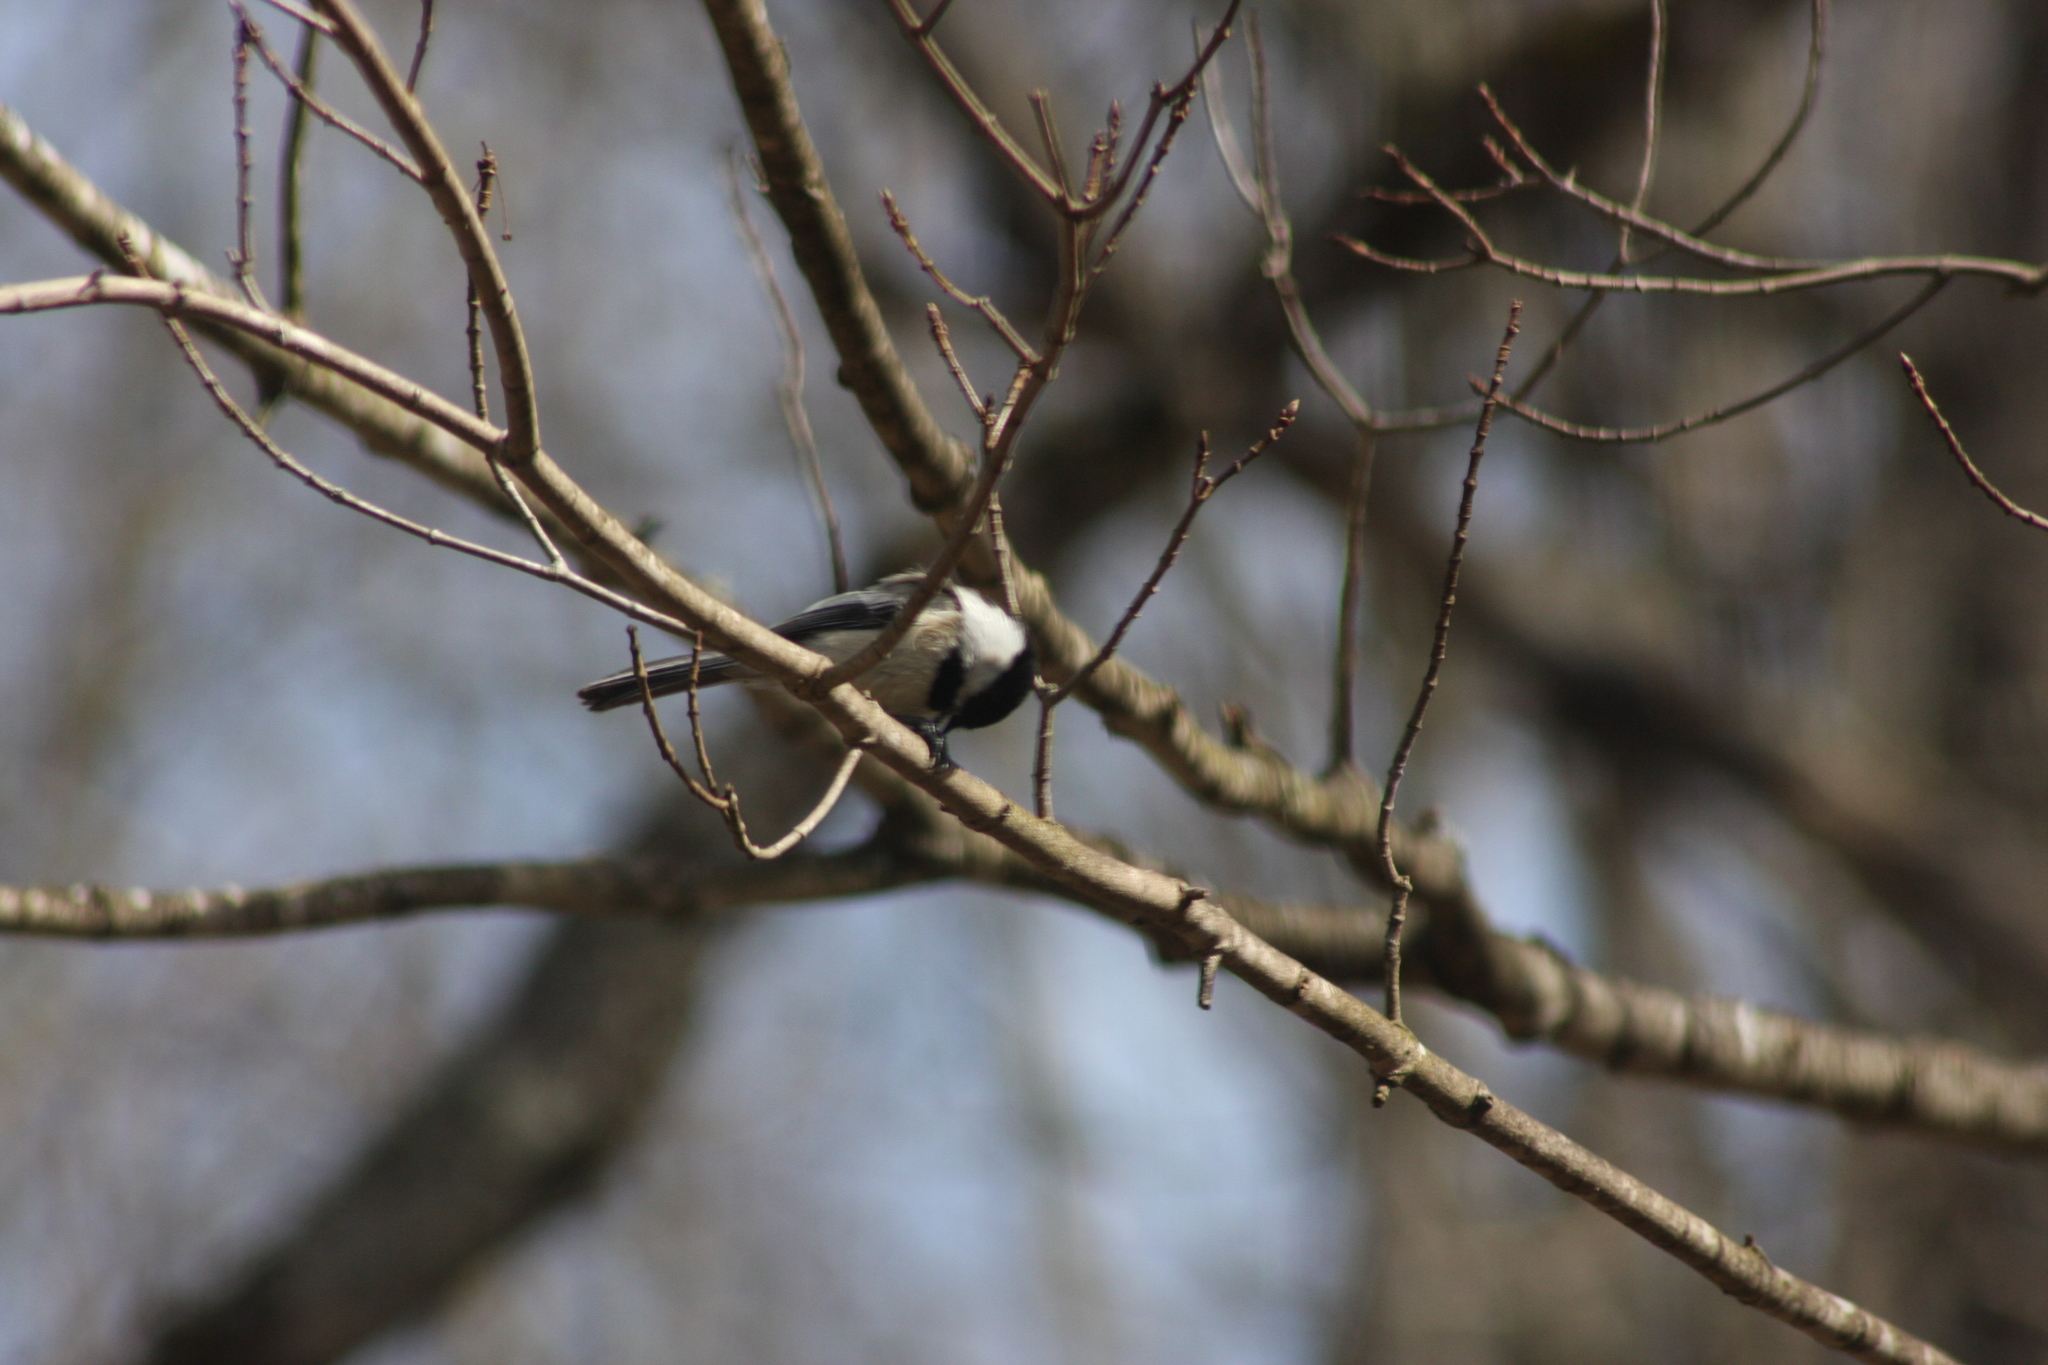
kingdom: Animalia
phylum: Chordata
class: Aves
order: Passeriformes
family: Paridae
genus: Poecile
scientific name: Poecile atricapillus
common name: Black-capped chickadee
